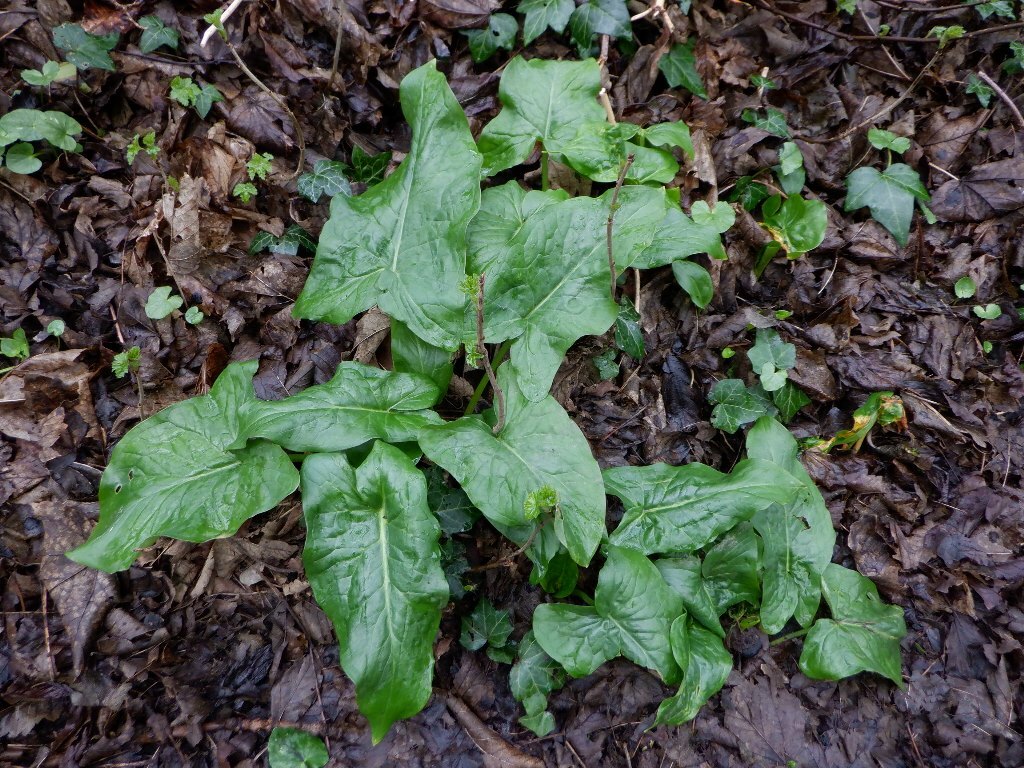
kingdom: Plantae
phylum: Tracheophyta
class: Liliopsida
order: Alismatales
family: Araceae
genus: Arum
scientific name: Arum maculatum
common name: Lords-and-ladies
